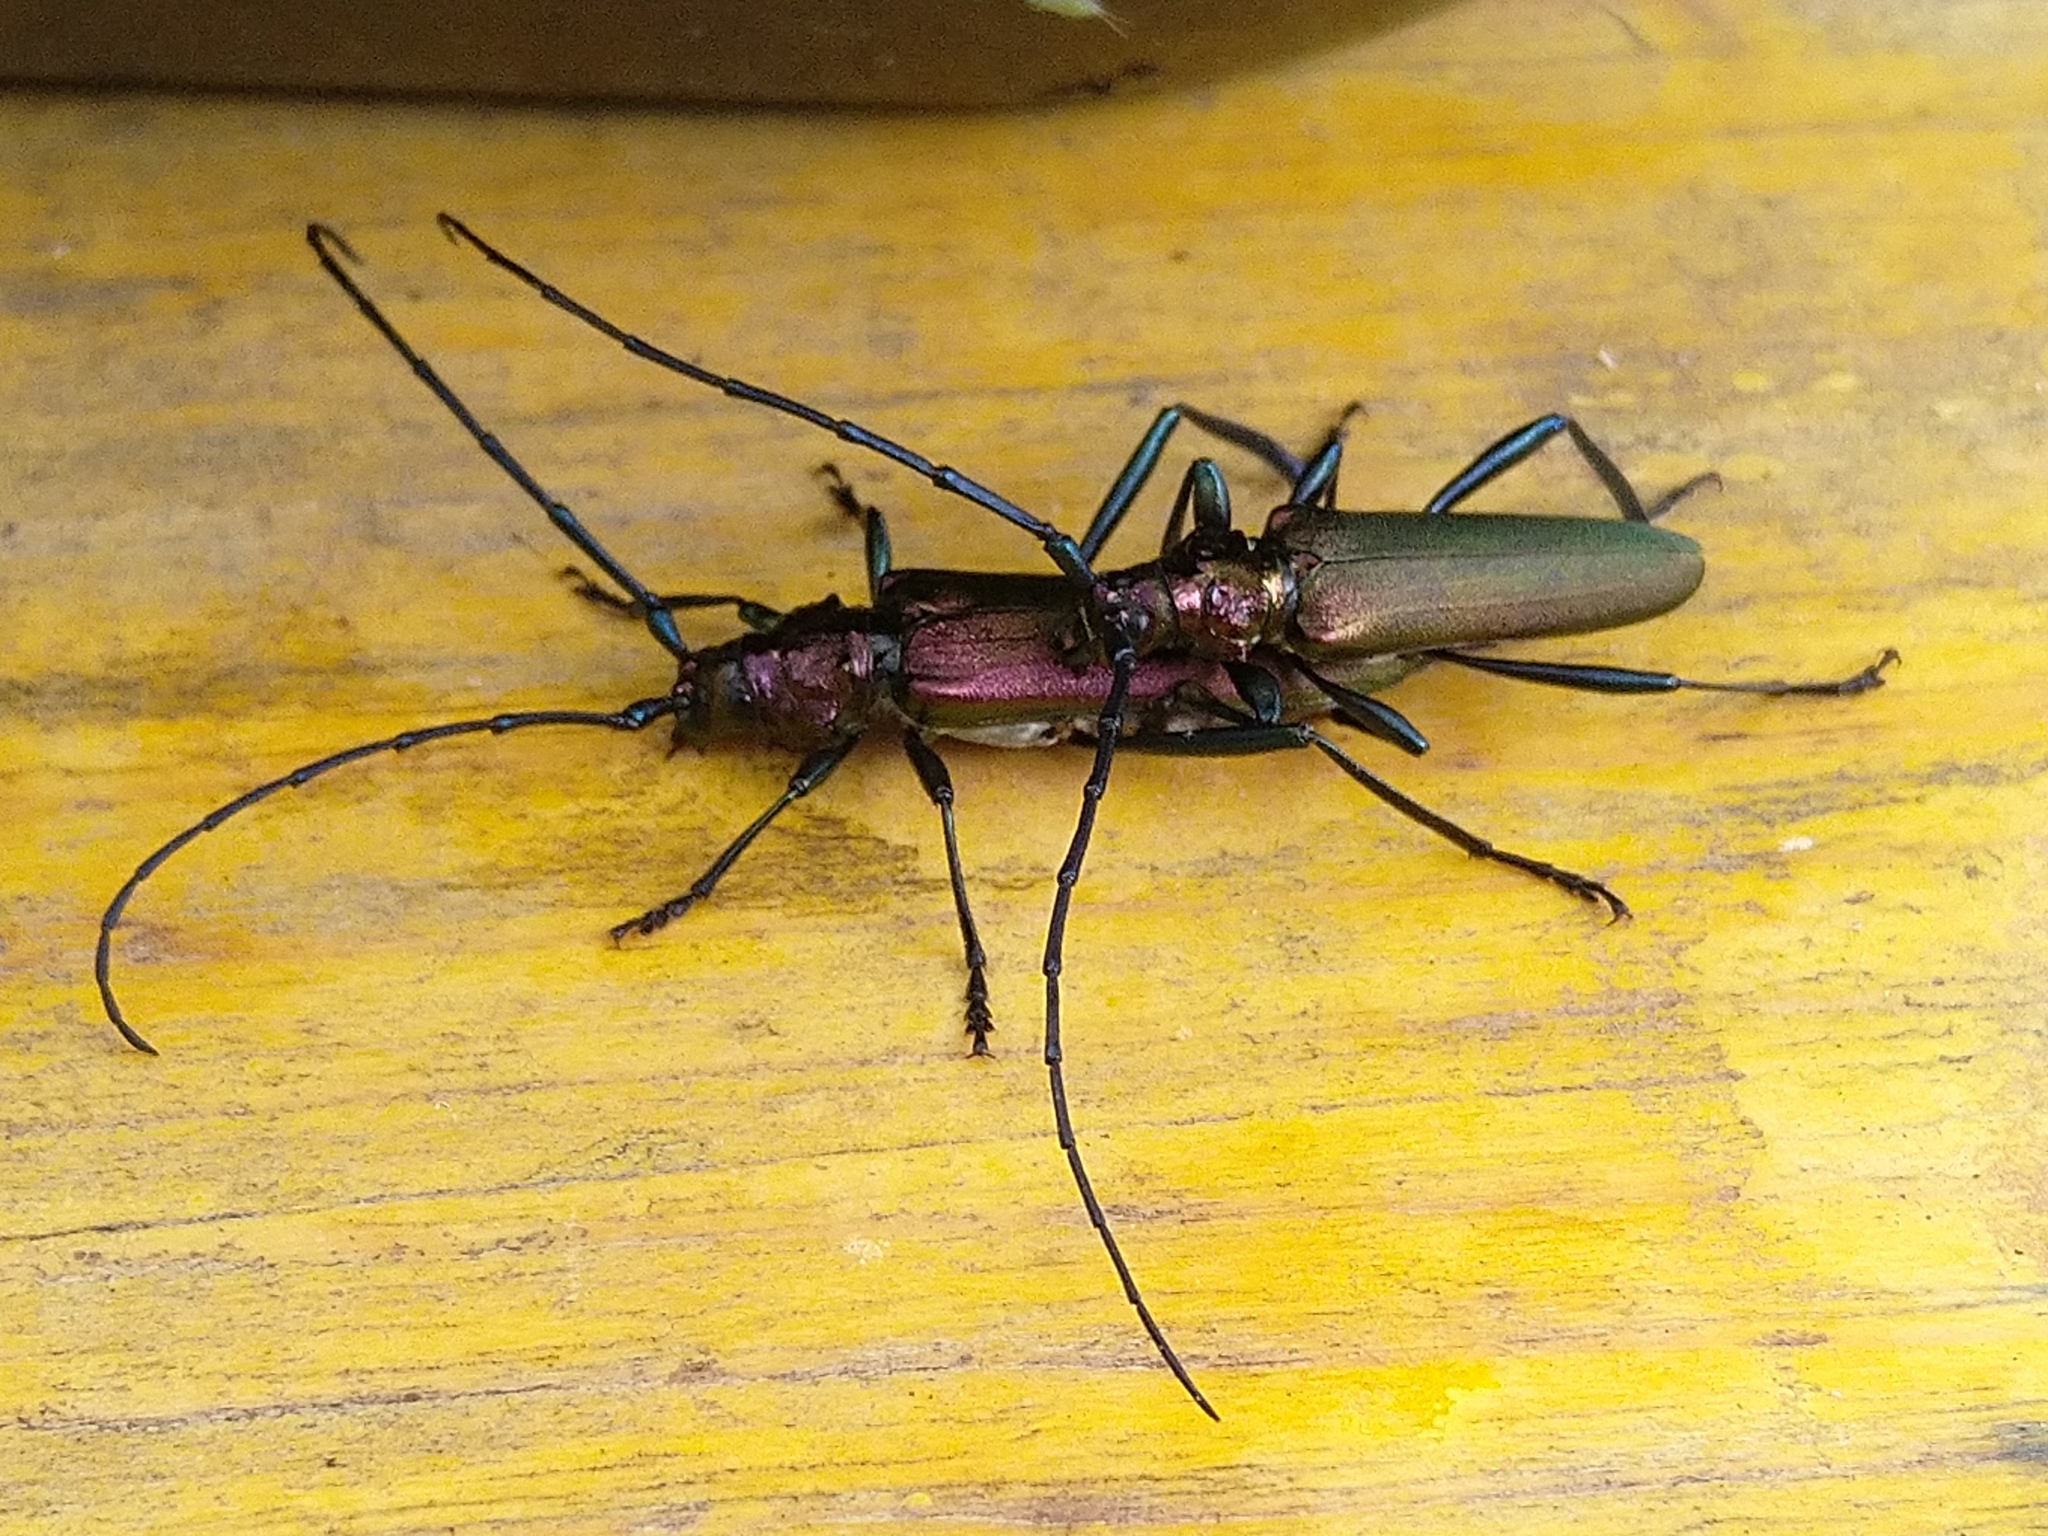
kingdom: Animalia
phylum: Arthropoda
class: Insecta
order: Coleoptera
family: Cerambycidae
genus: Aromia
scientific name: Aromia moschata
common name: Musk beetle
